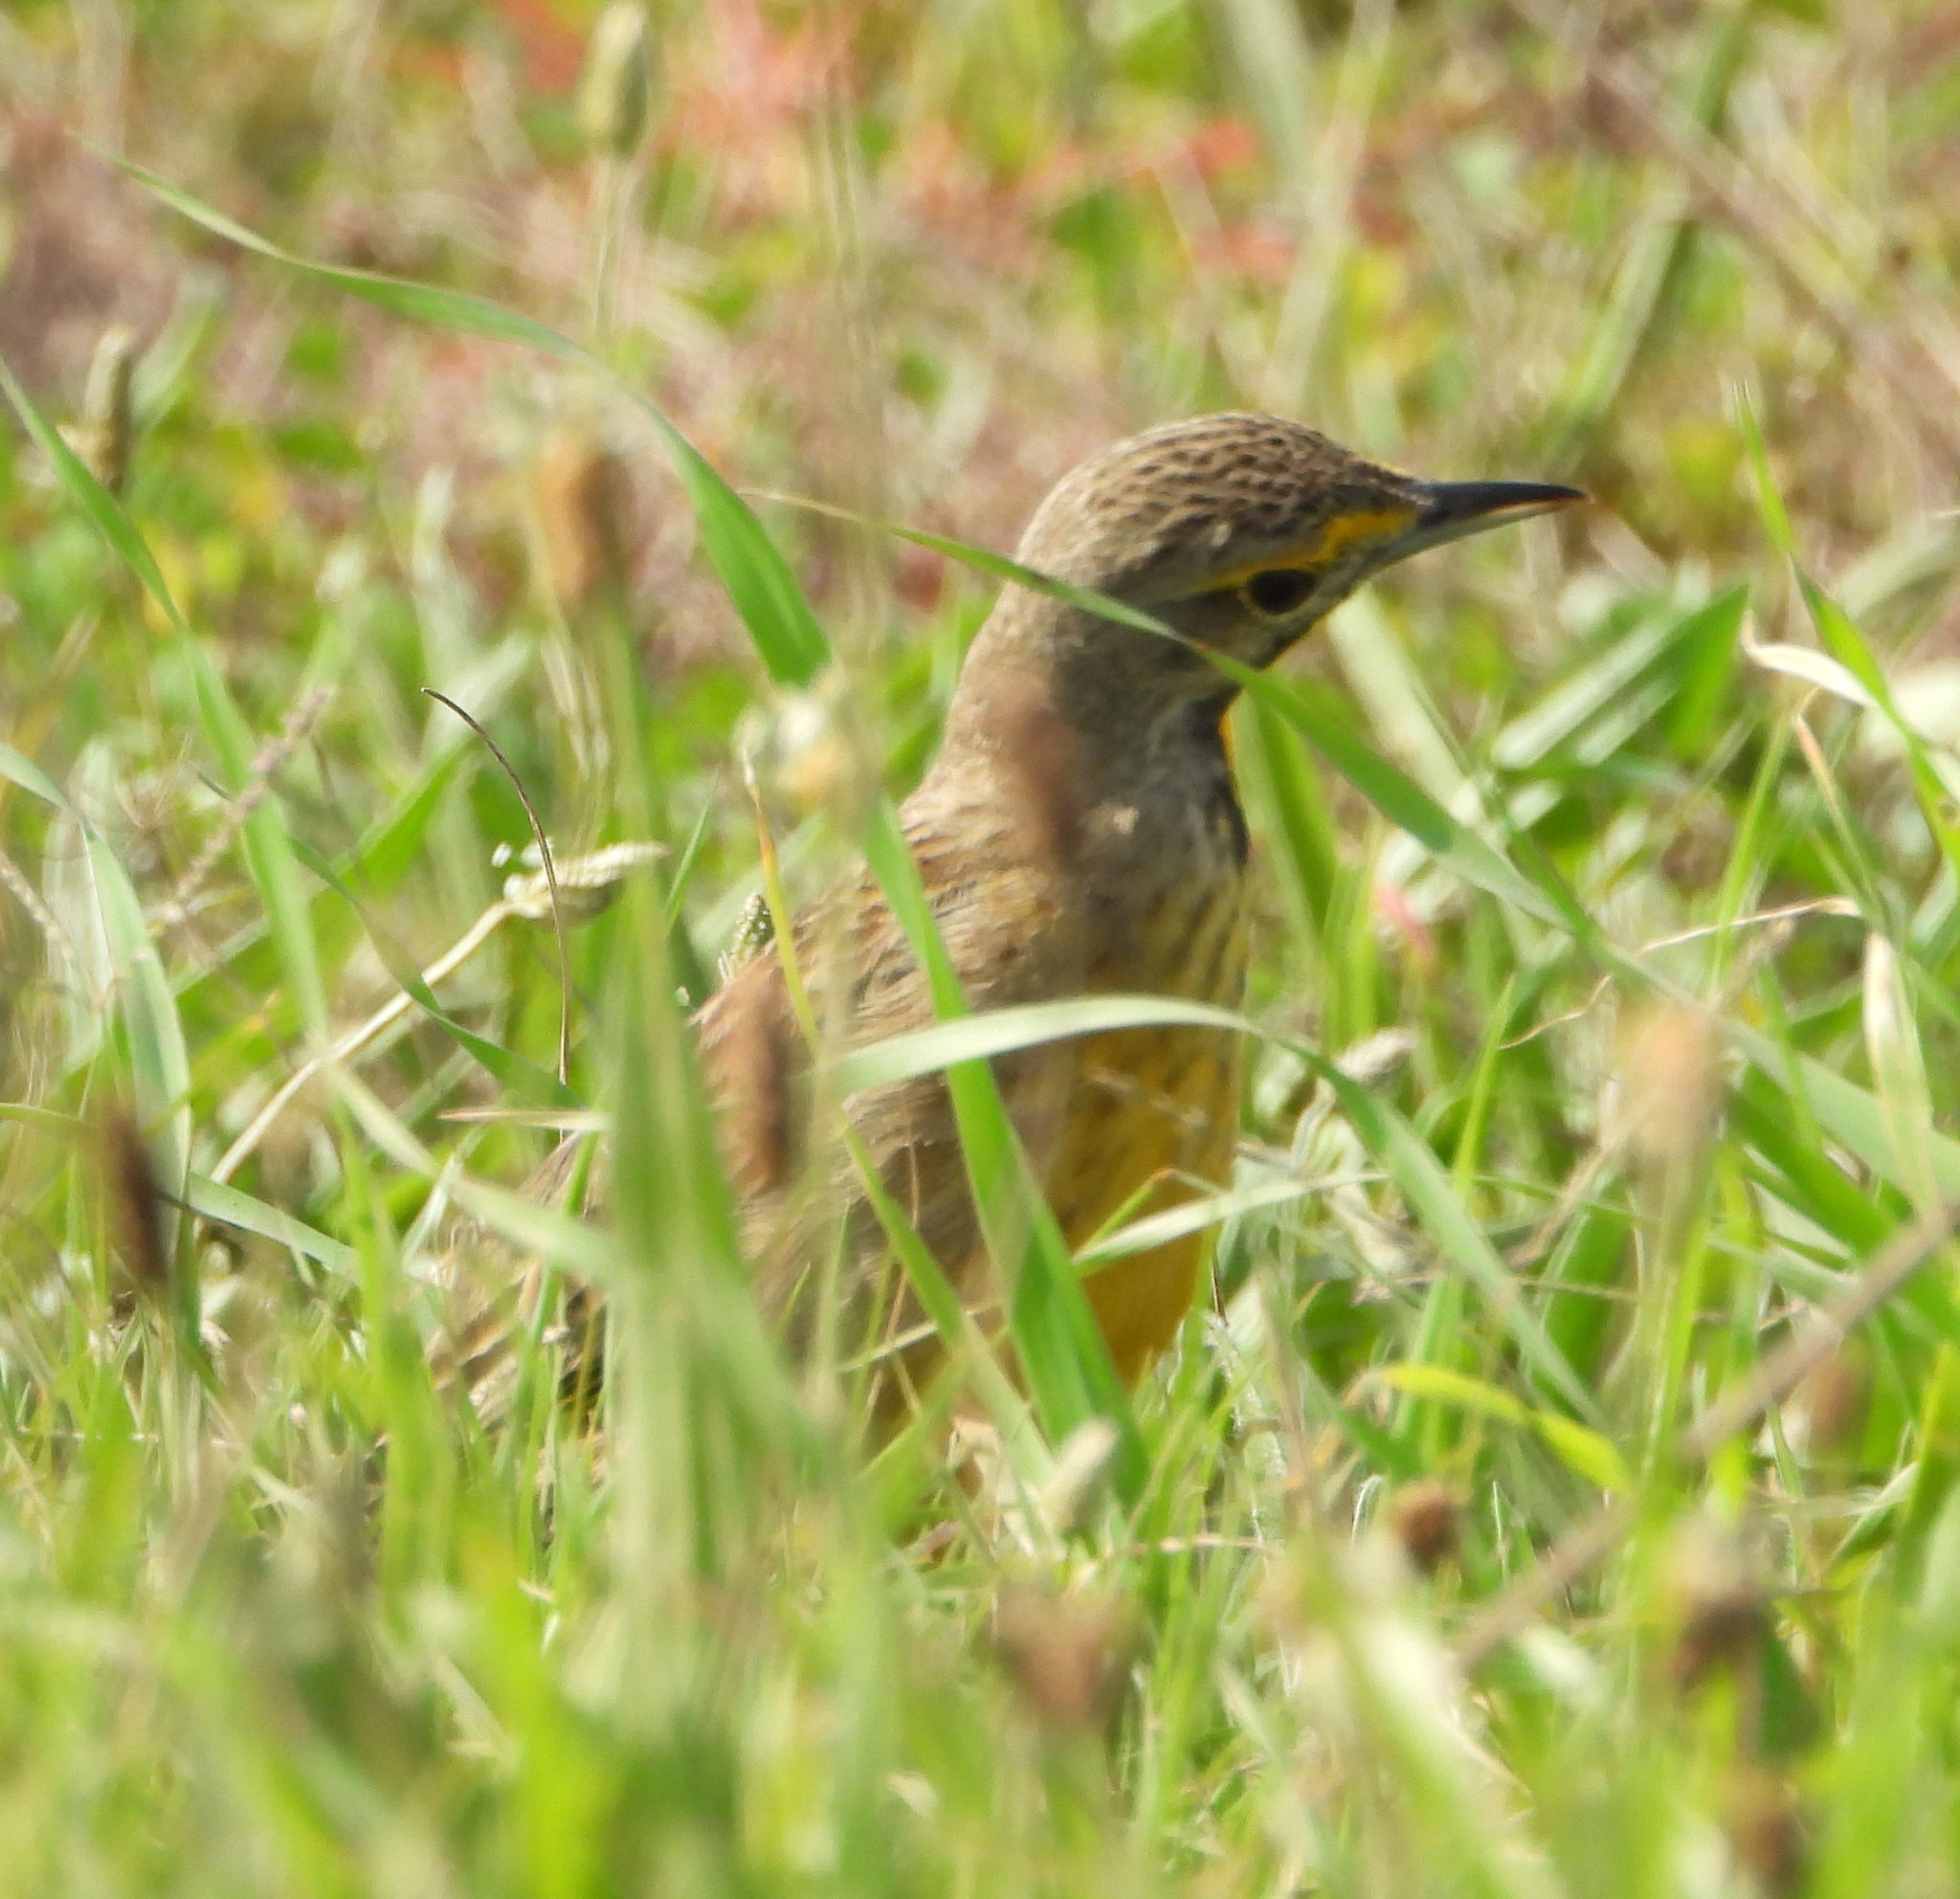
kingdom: Animalia
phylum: Chordata
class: Aves
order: Passeriformes
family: Motacillidae
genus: Macronyx
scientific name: Macronyx capensis
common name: Cape longclaw
